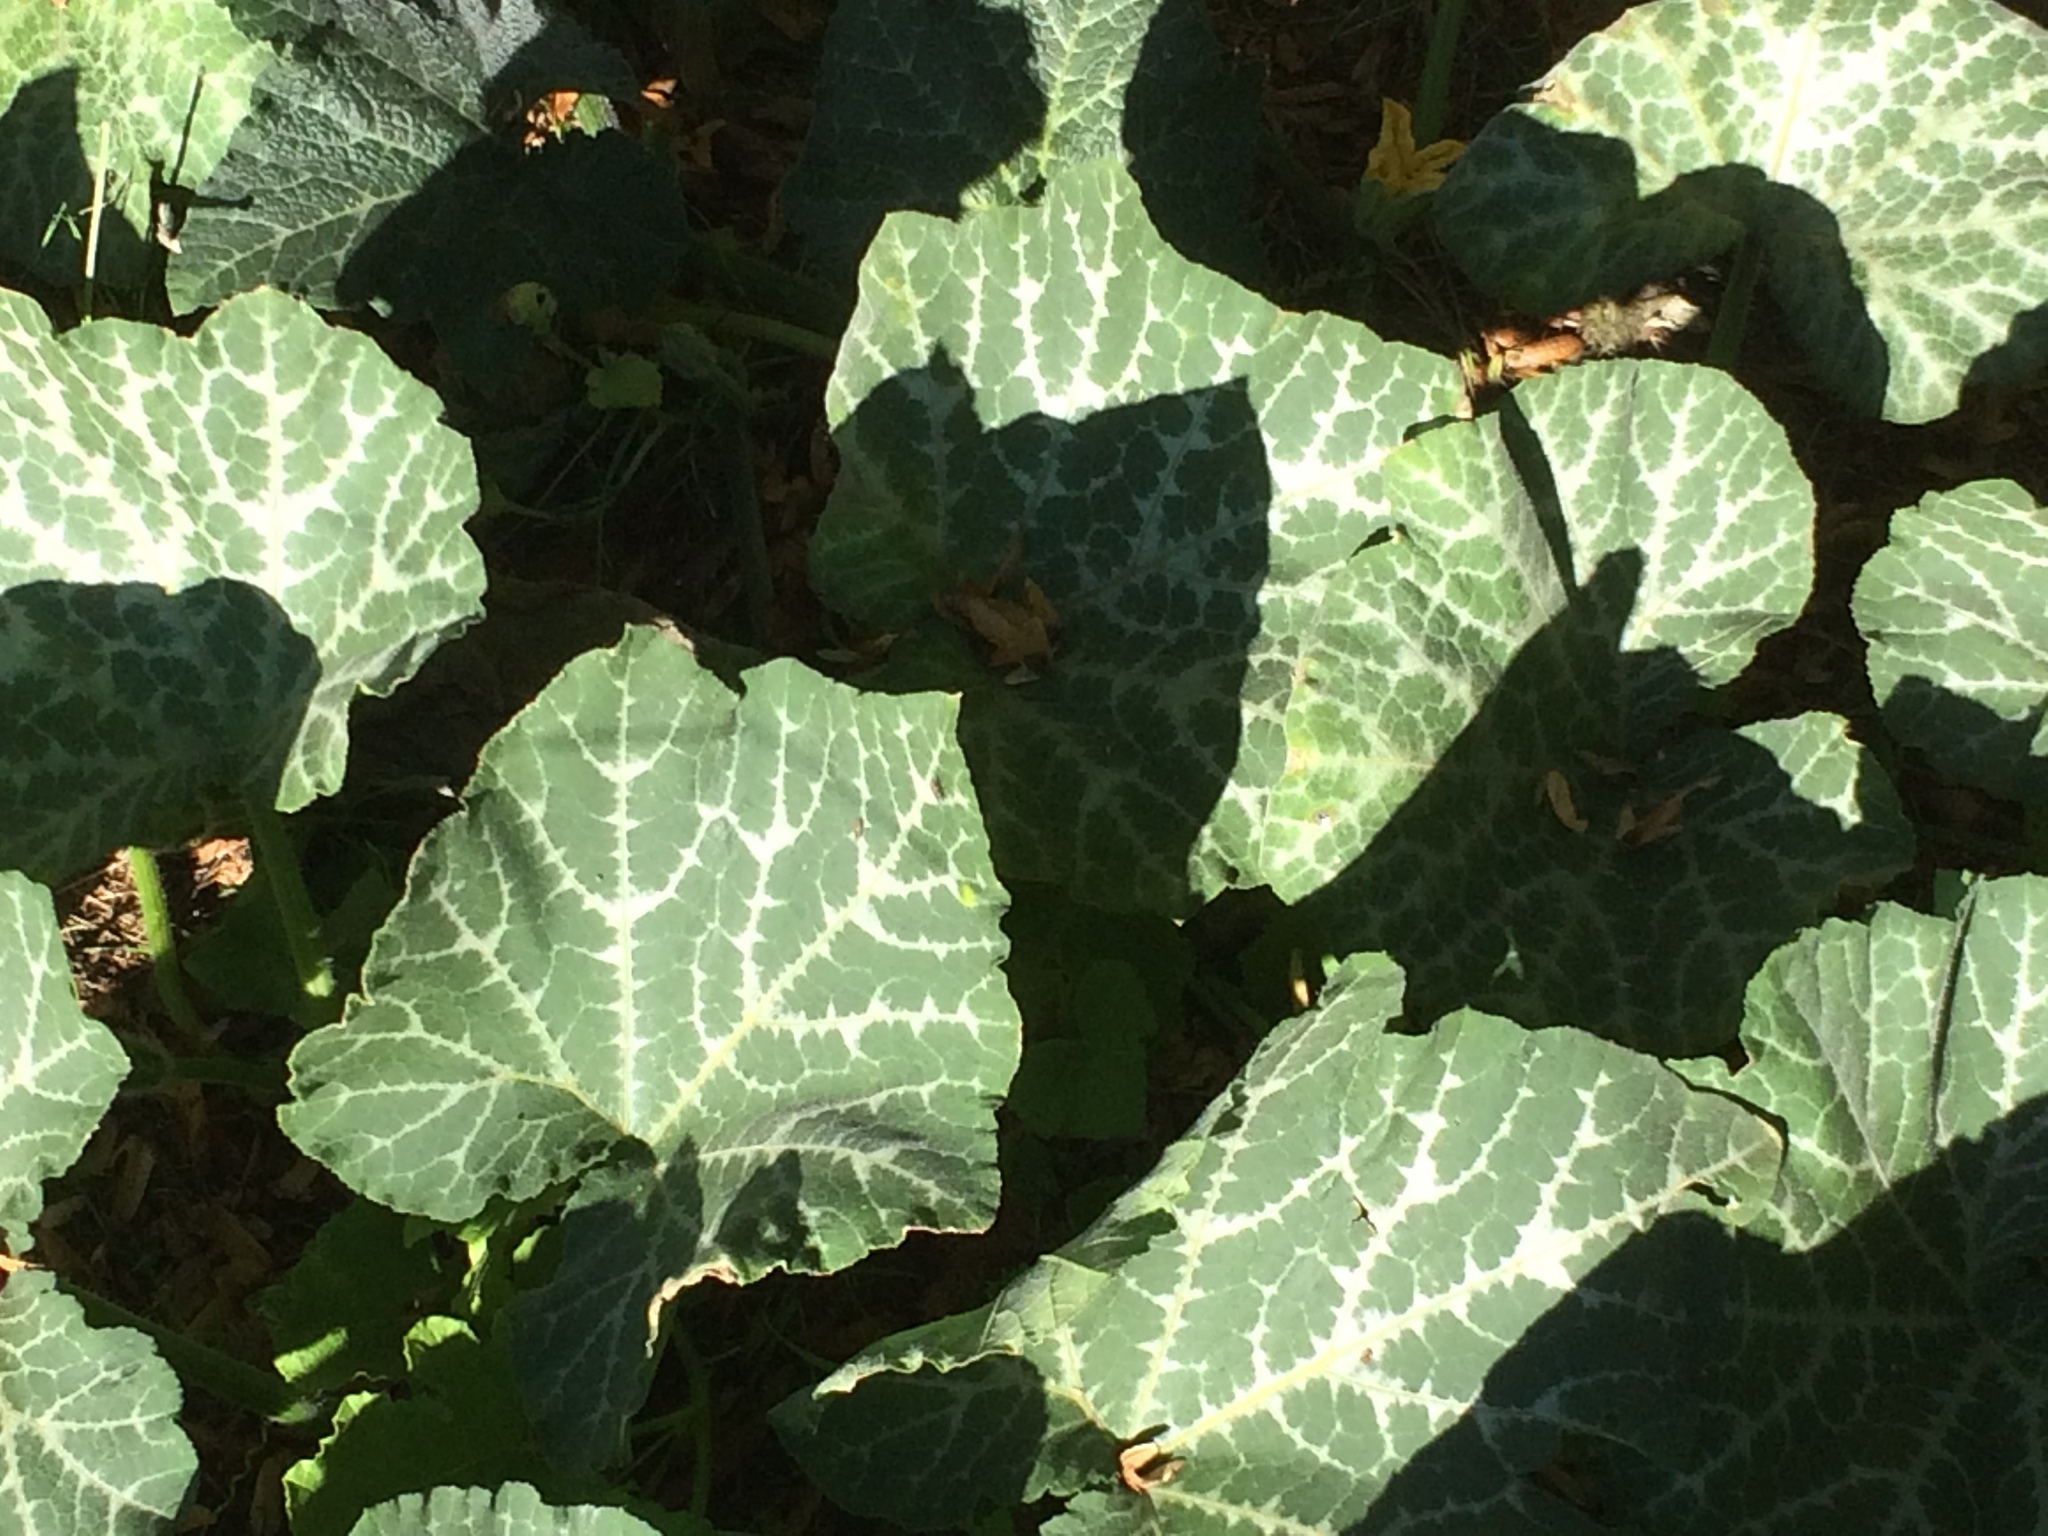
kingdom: Plantae
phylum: Tracheophyta
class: Magnoliopsida
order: Cucurbitales
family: Cucurbitaceae
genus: Cucurbita
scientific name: Cucurbita moschata
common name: Squash / pumpkin
